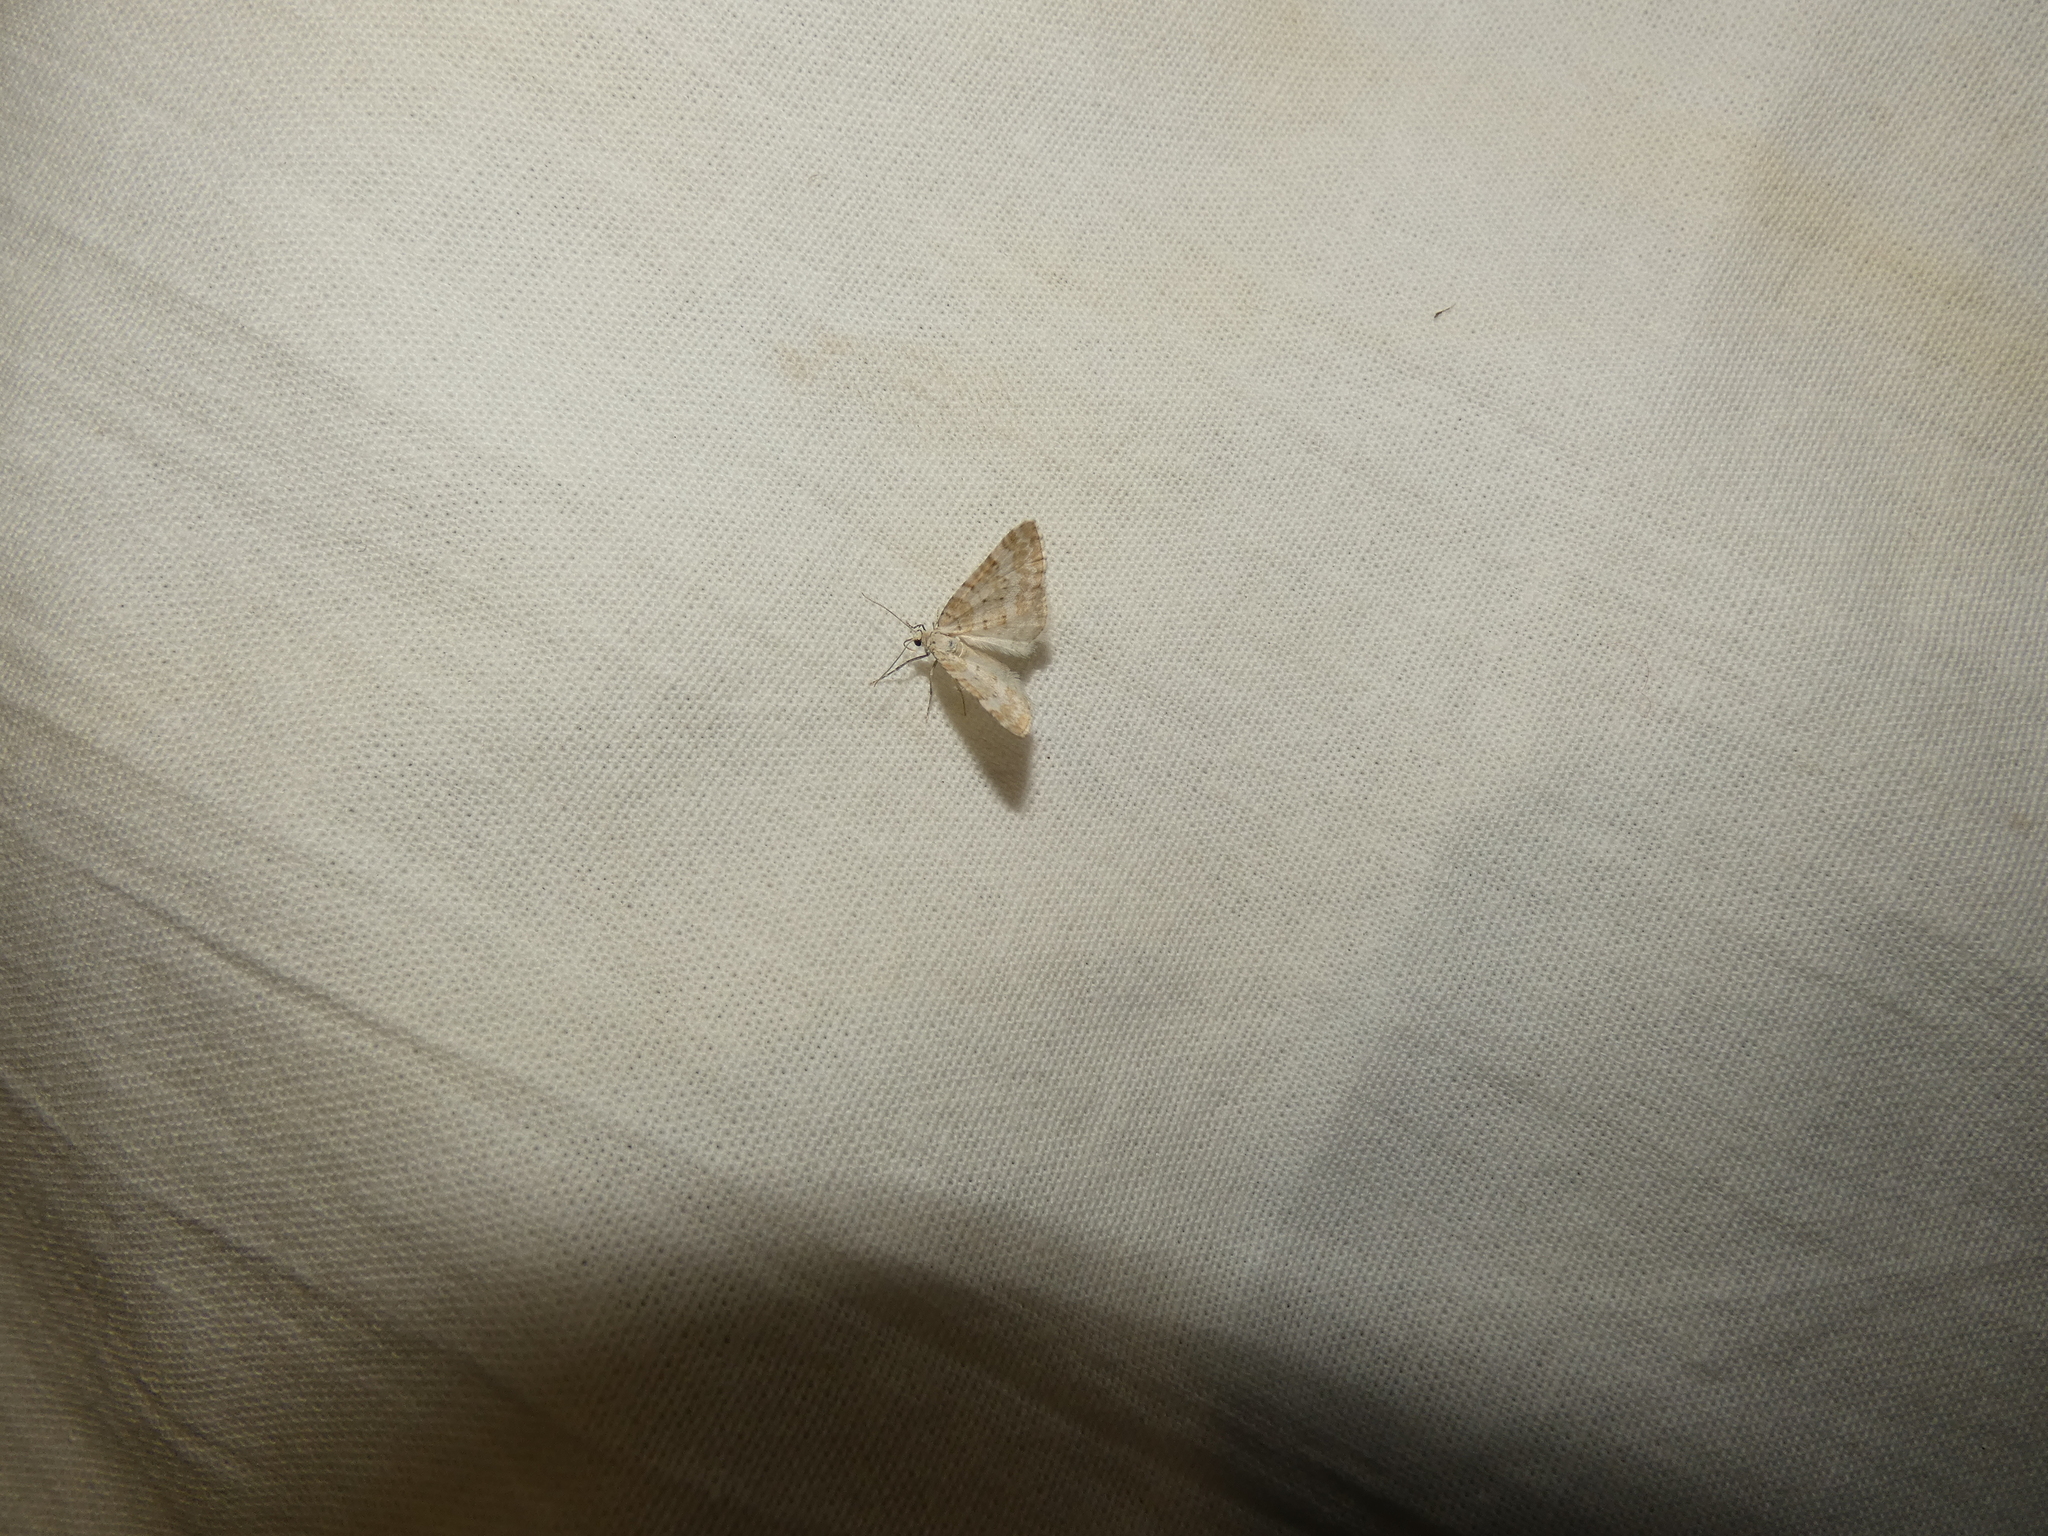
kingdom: Animalia
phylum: Arthropoda
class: Insecta
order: Lepidoptera
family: Geometridae
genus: Perizoma
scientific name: Perizoma albulata
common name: Grass rivulet
